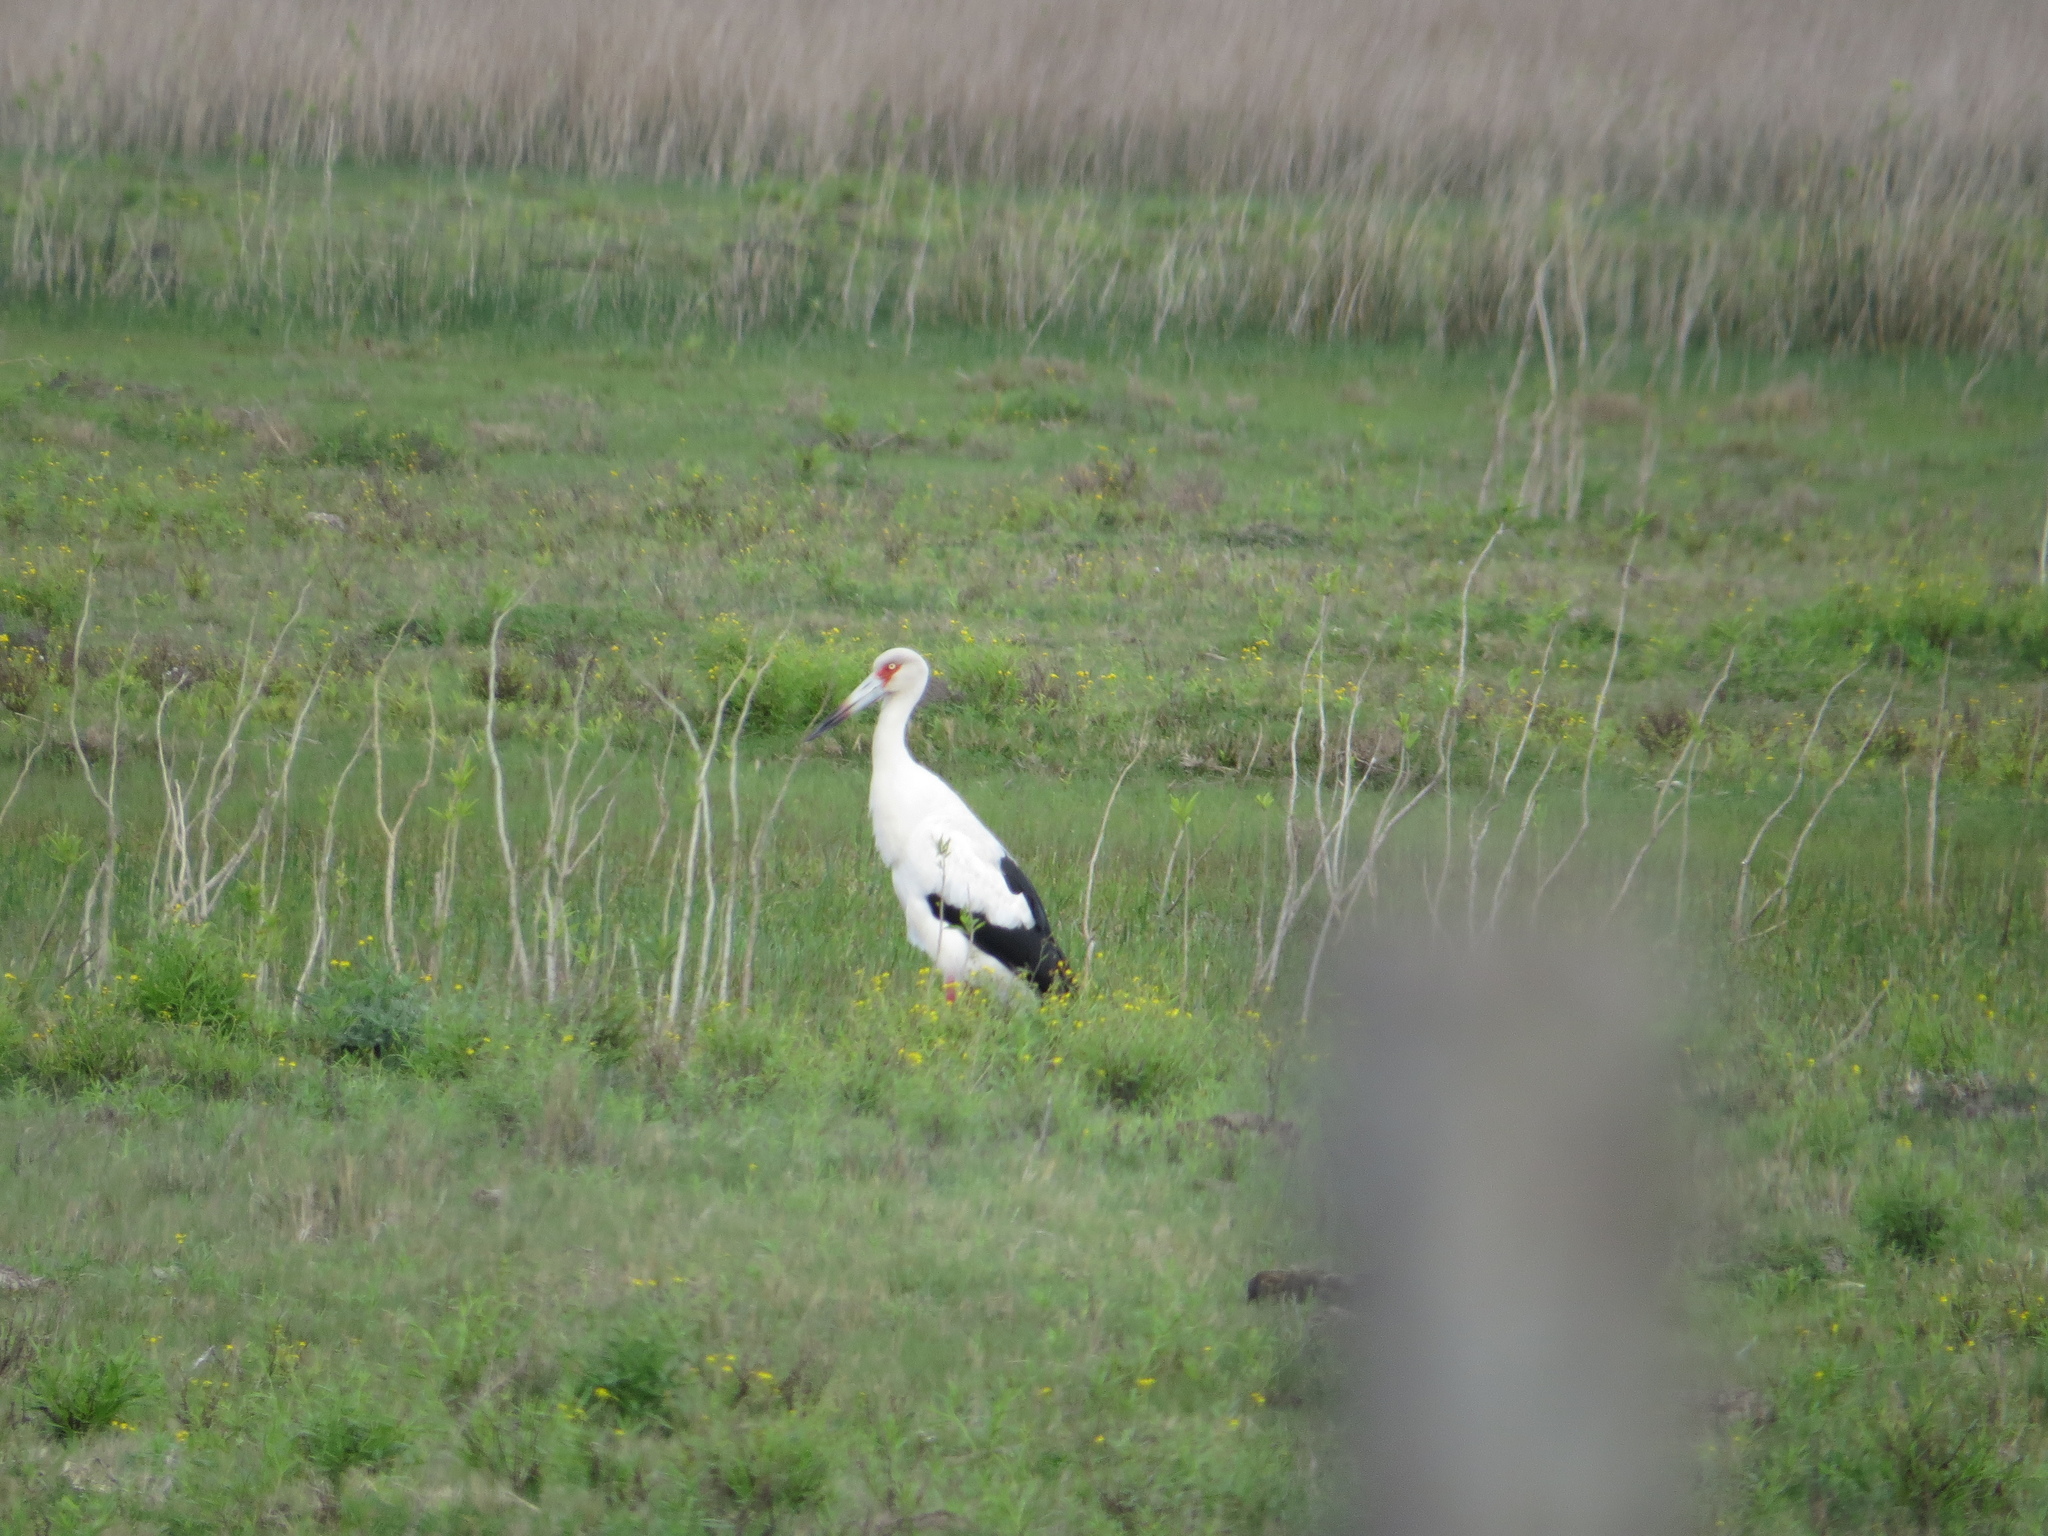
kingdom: Animalia
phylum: Chordata
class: Aves
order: Ciconiiformes
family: Ciconiidae
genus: Ciconia
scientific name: Ciconia maguari
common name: Maguari stork
